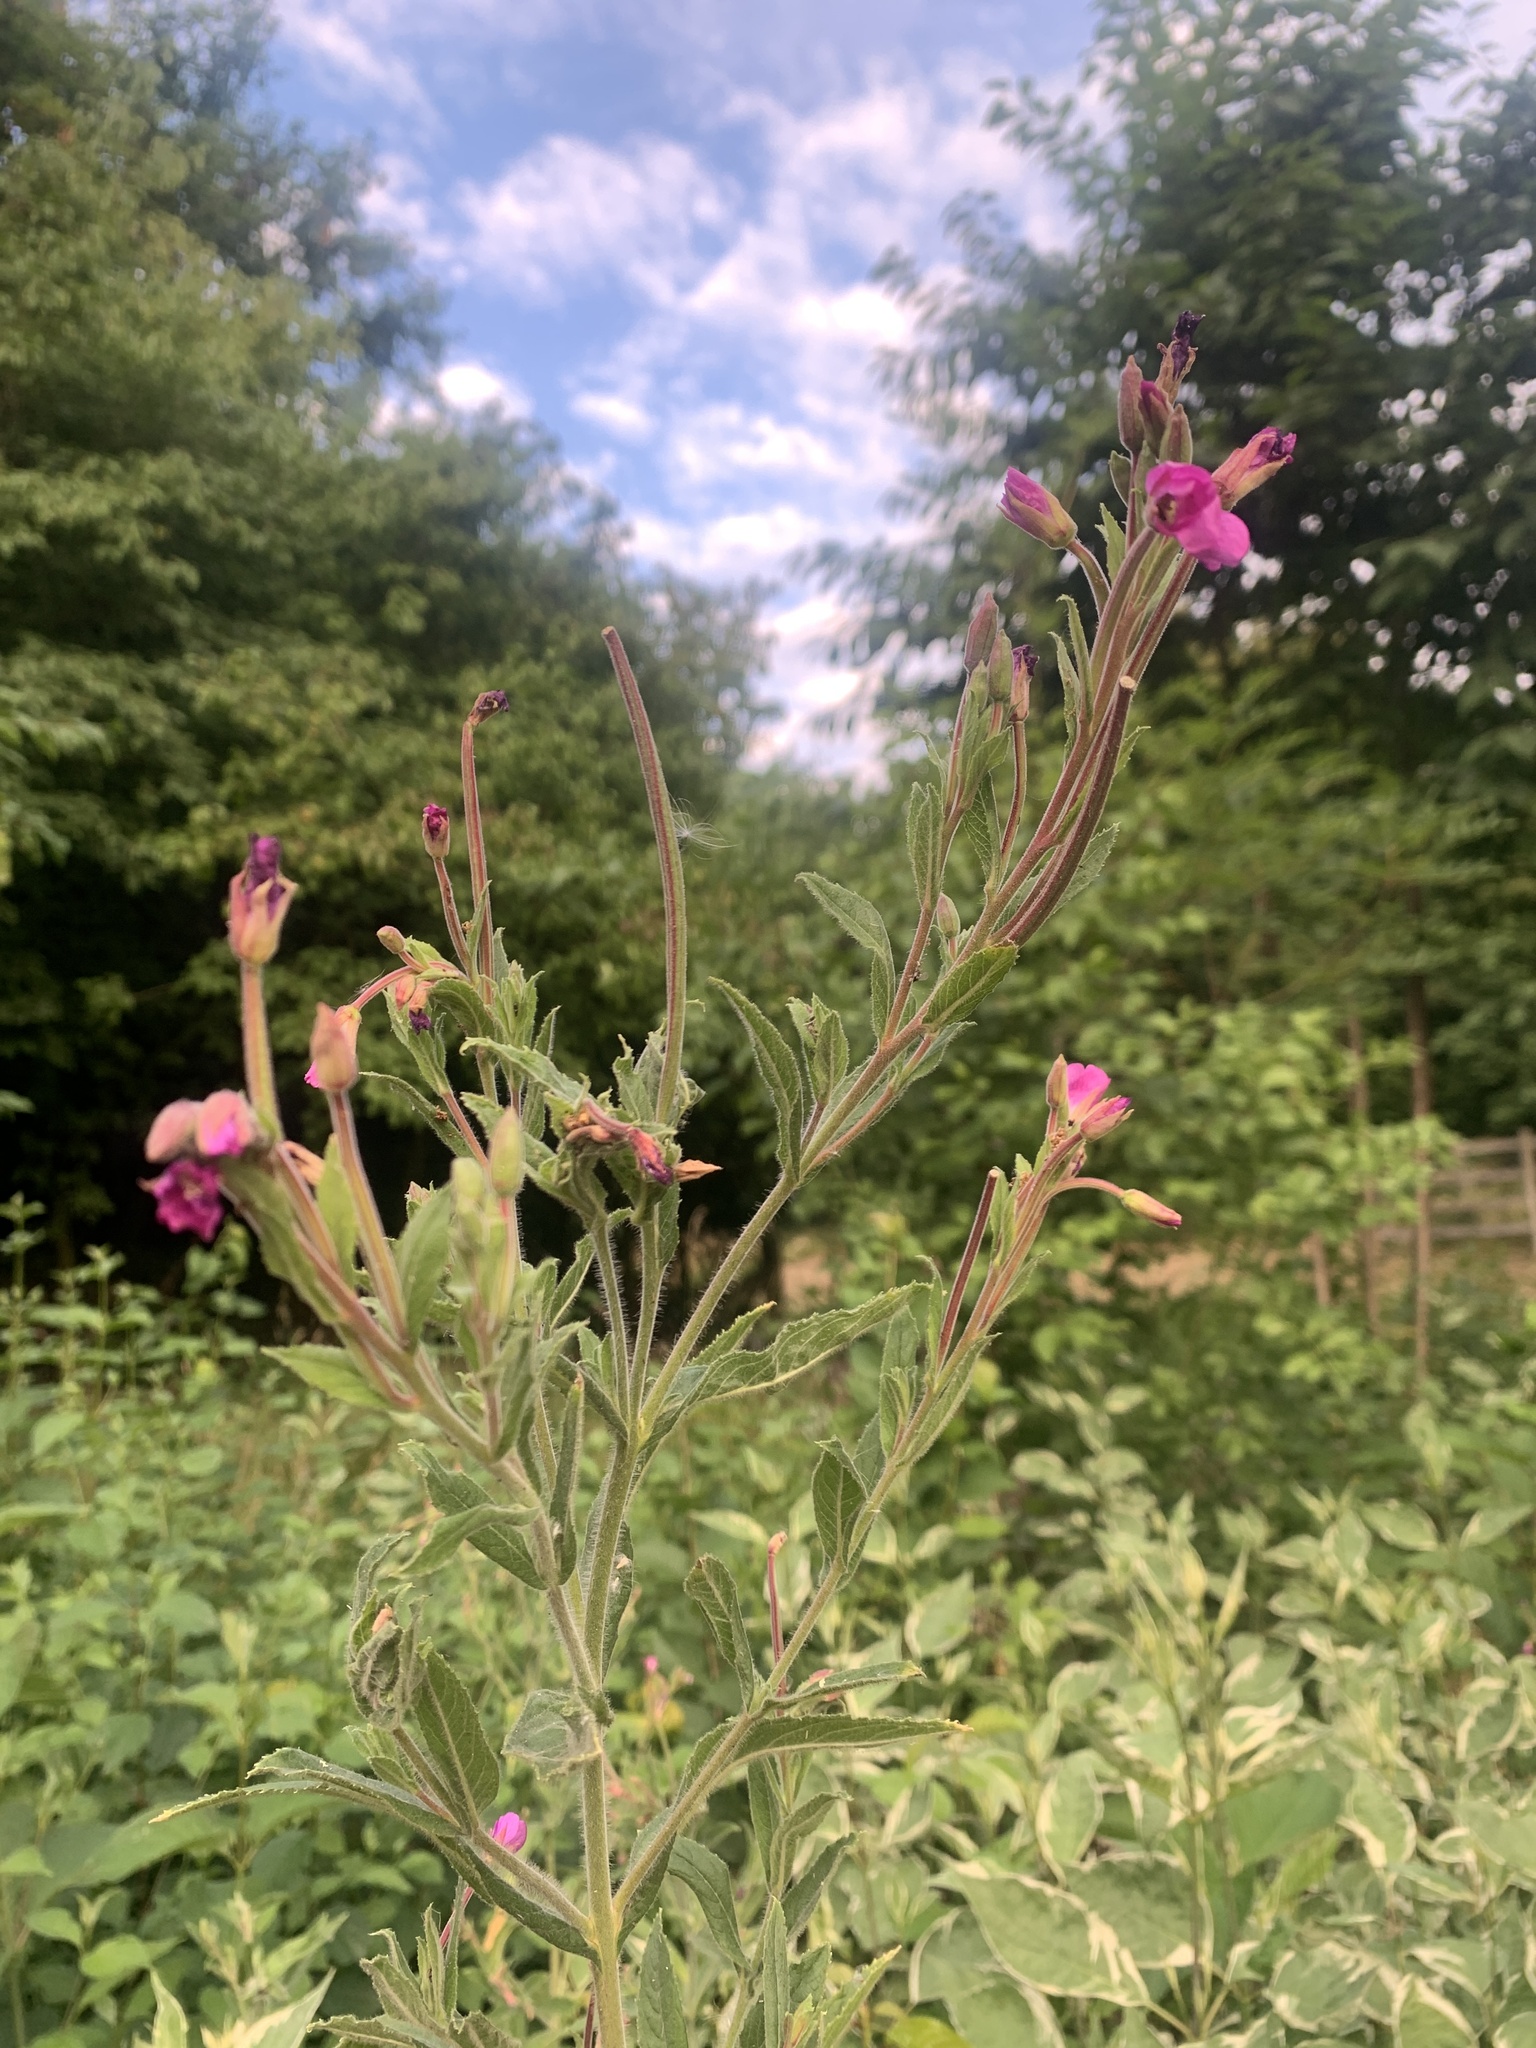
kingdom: Plantae
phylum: Tracheophyta
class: Magnoliopsida
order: Myrtales
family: Onagraceae
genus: Epilobium
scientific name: Epilobium hirsutum
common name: Great willowherb
